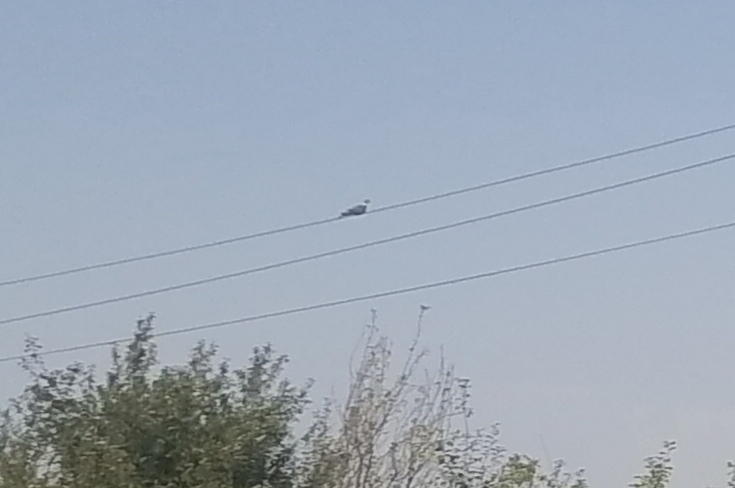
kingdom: Animalia
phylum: Chordata
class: Aves
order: Columbiformes
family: Columbidae
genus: Columba
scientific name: Columba palumbus
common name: Common wood pigeon
